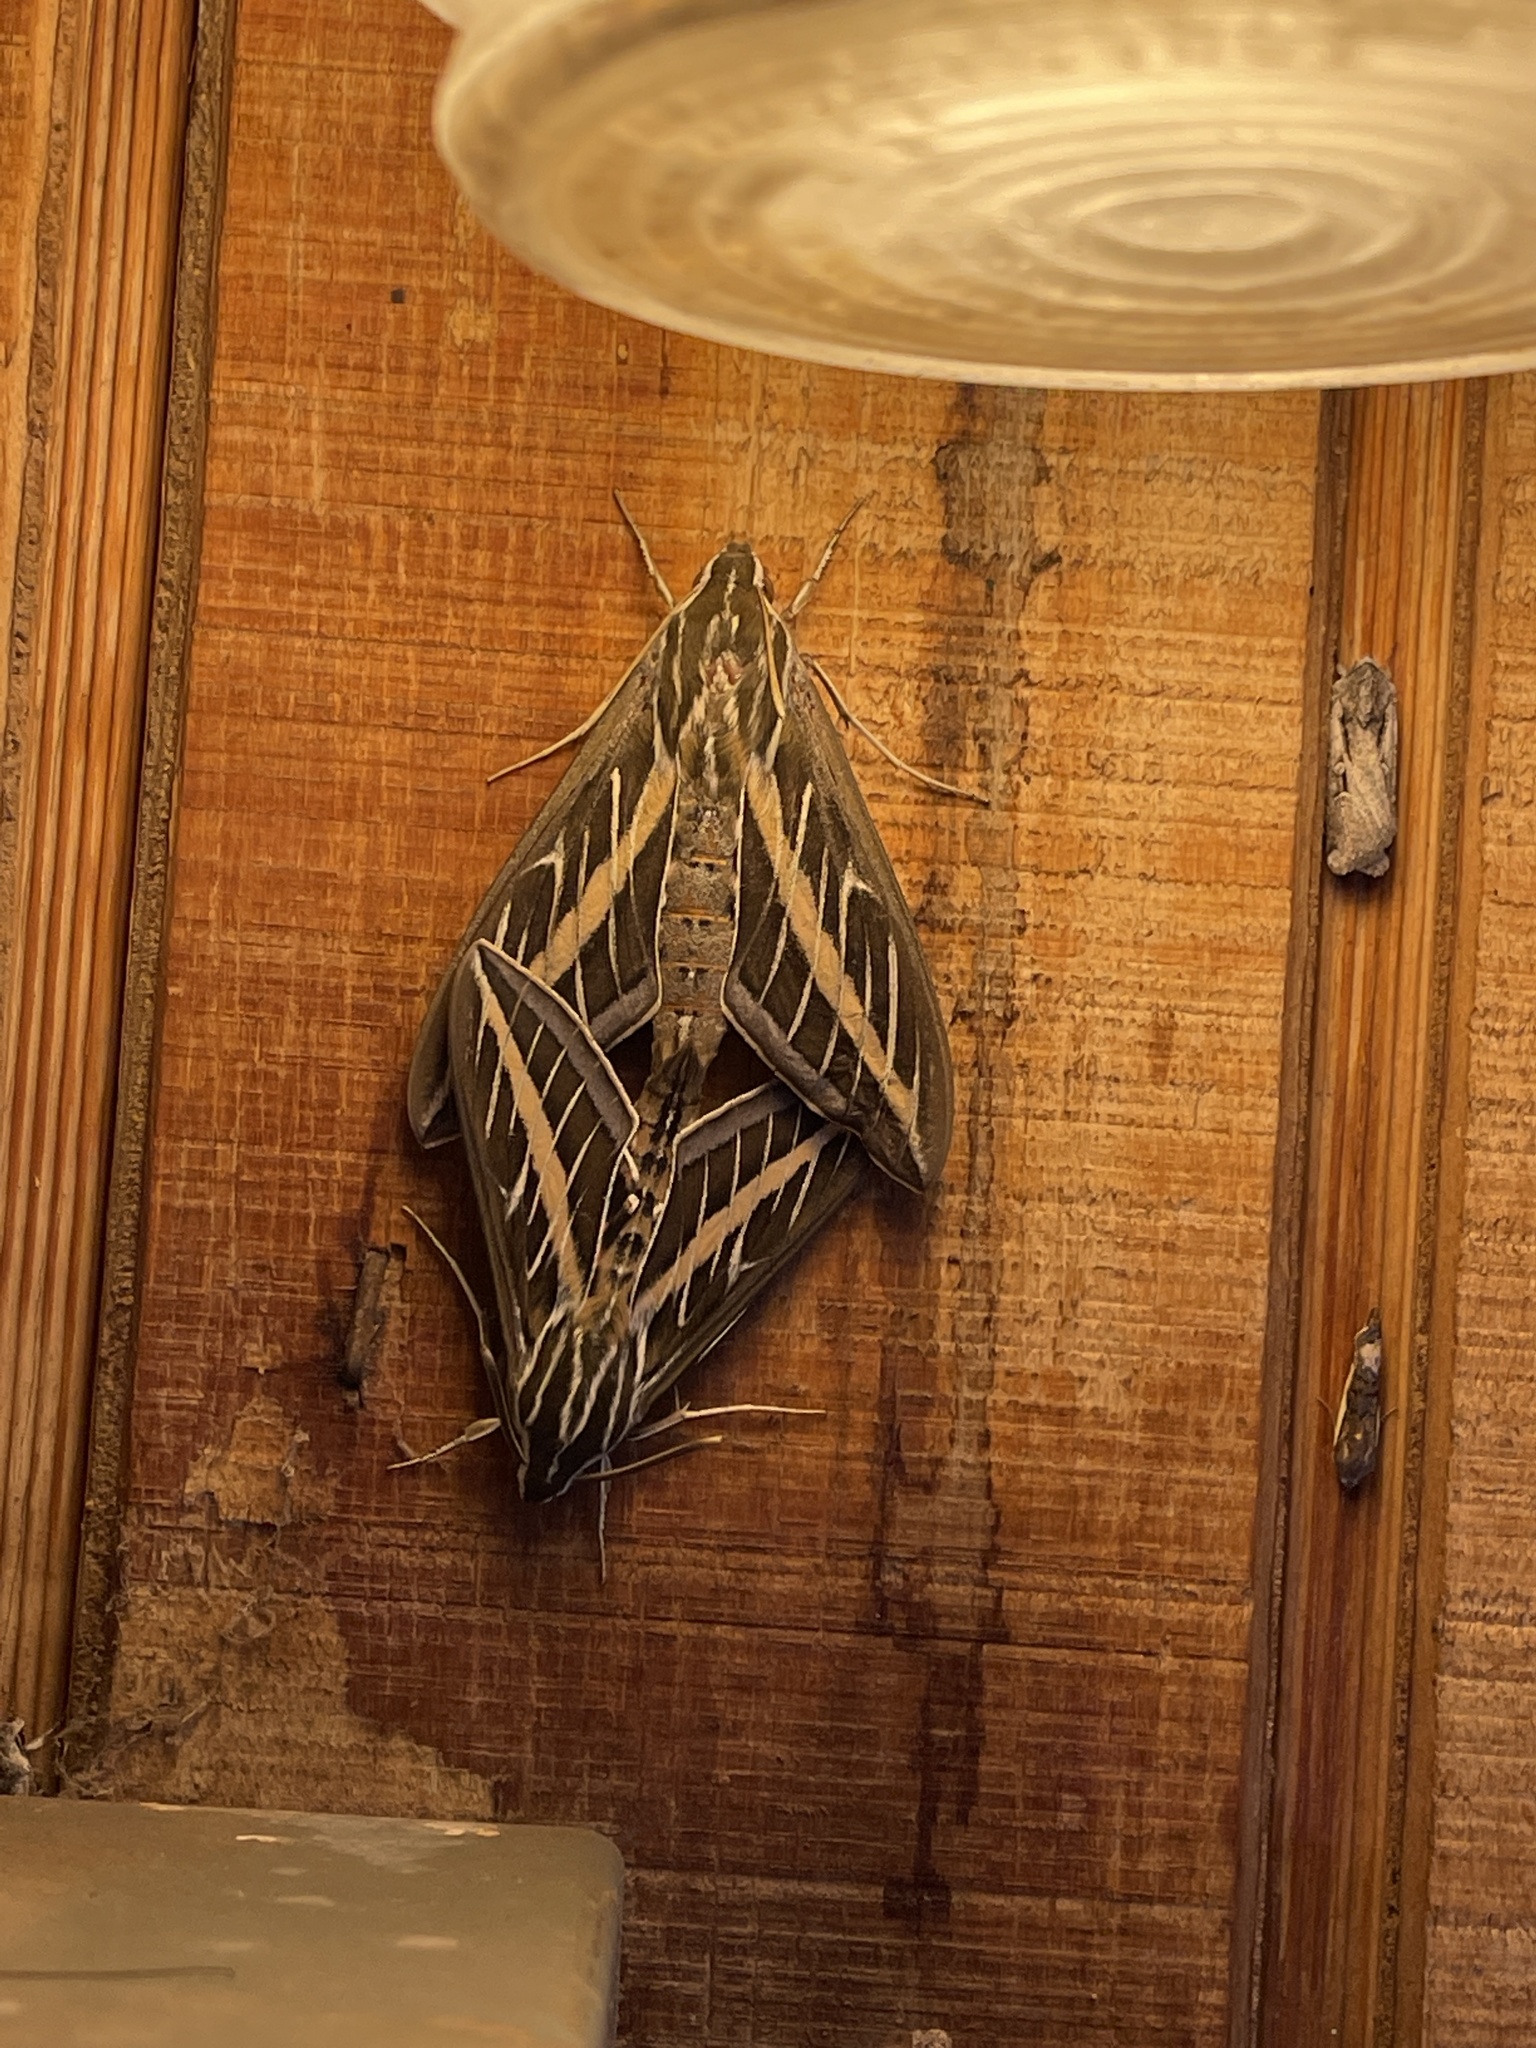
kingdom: Animalia
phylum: Arthropoda
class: Insecta
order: Lepidoptera
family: Sphingidae
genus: Hyles
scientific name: Hyles lineata
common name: White-lined sphinx
